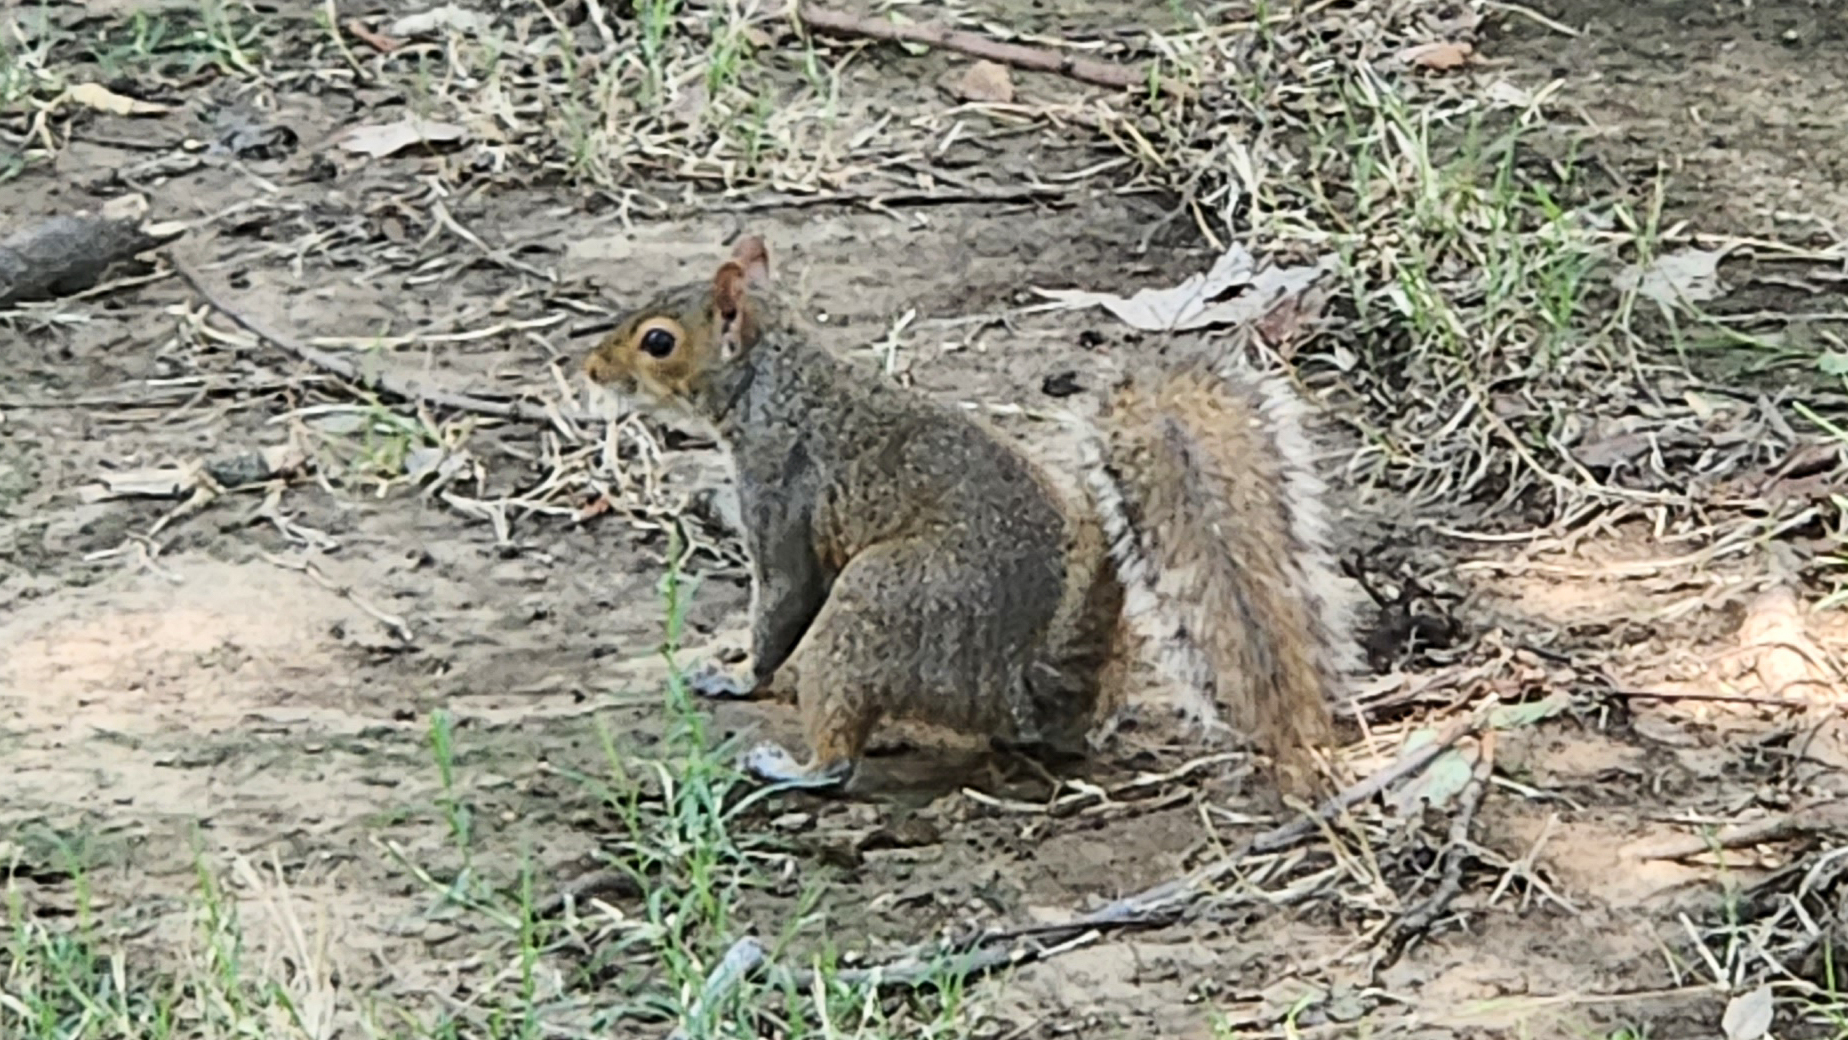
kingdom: Animalia
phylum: Chordata
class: Mammalia
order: Rodentia
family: Sciuridae
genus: Sciurus
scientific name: Sciurus carolinensis
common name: Eastern gray squirrel
